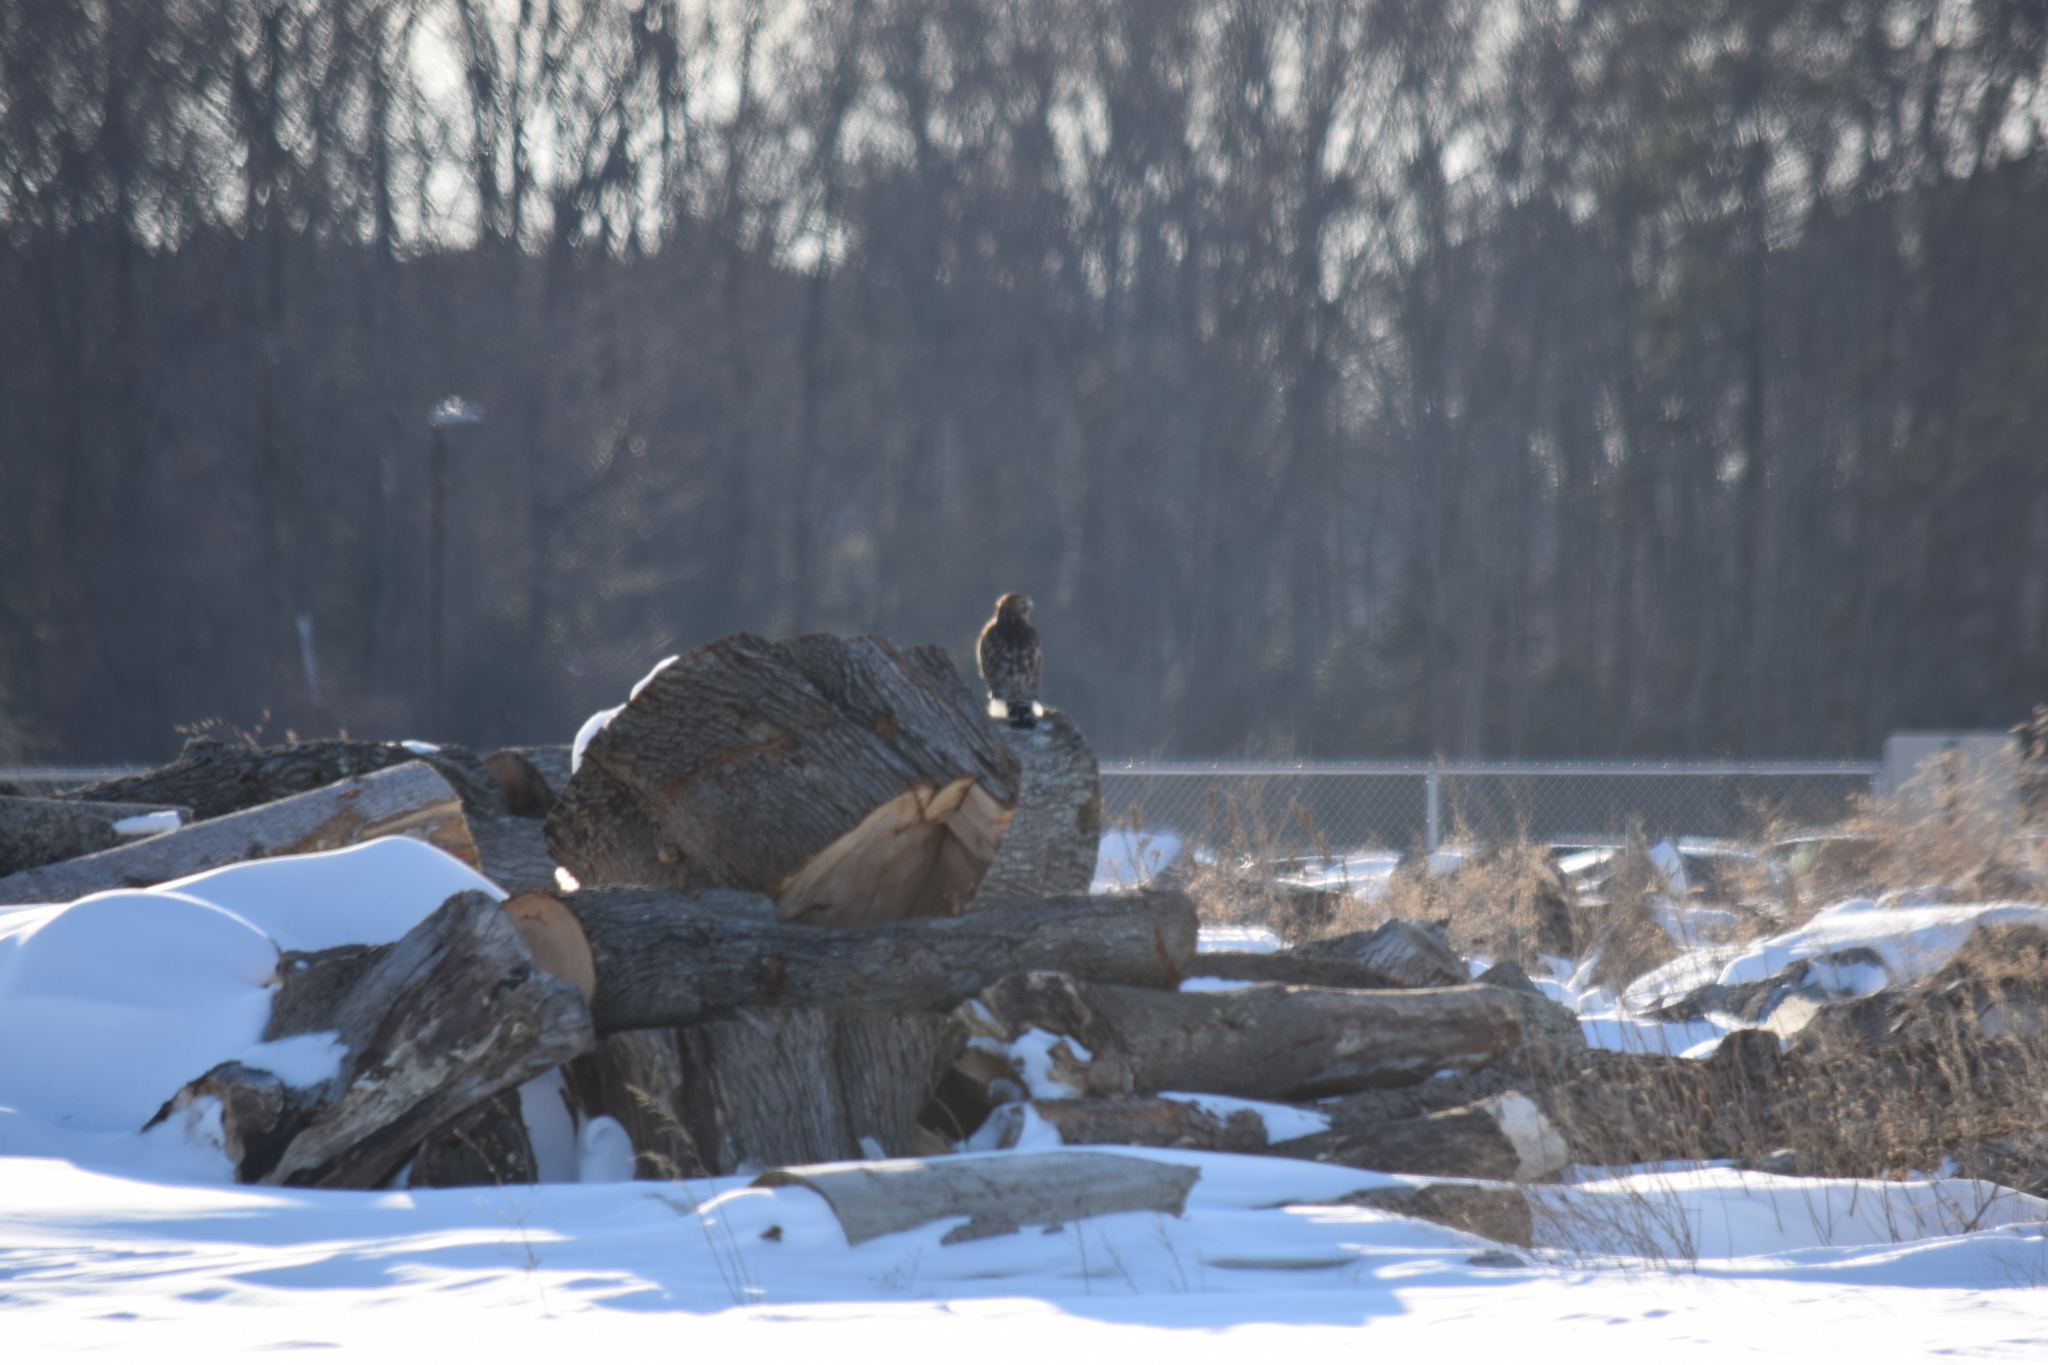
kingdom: Animalia
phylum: Chordata
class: Aves
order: Accipitriformes
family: Accipitridae
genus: Buteo
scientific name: Buteo lineatus
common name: Red-shouldered hawk
